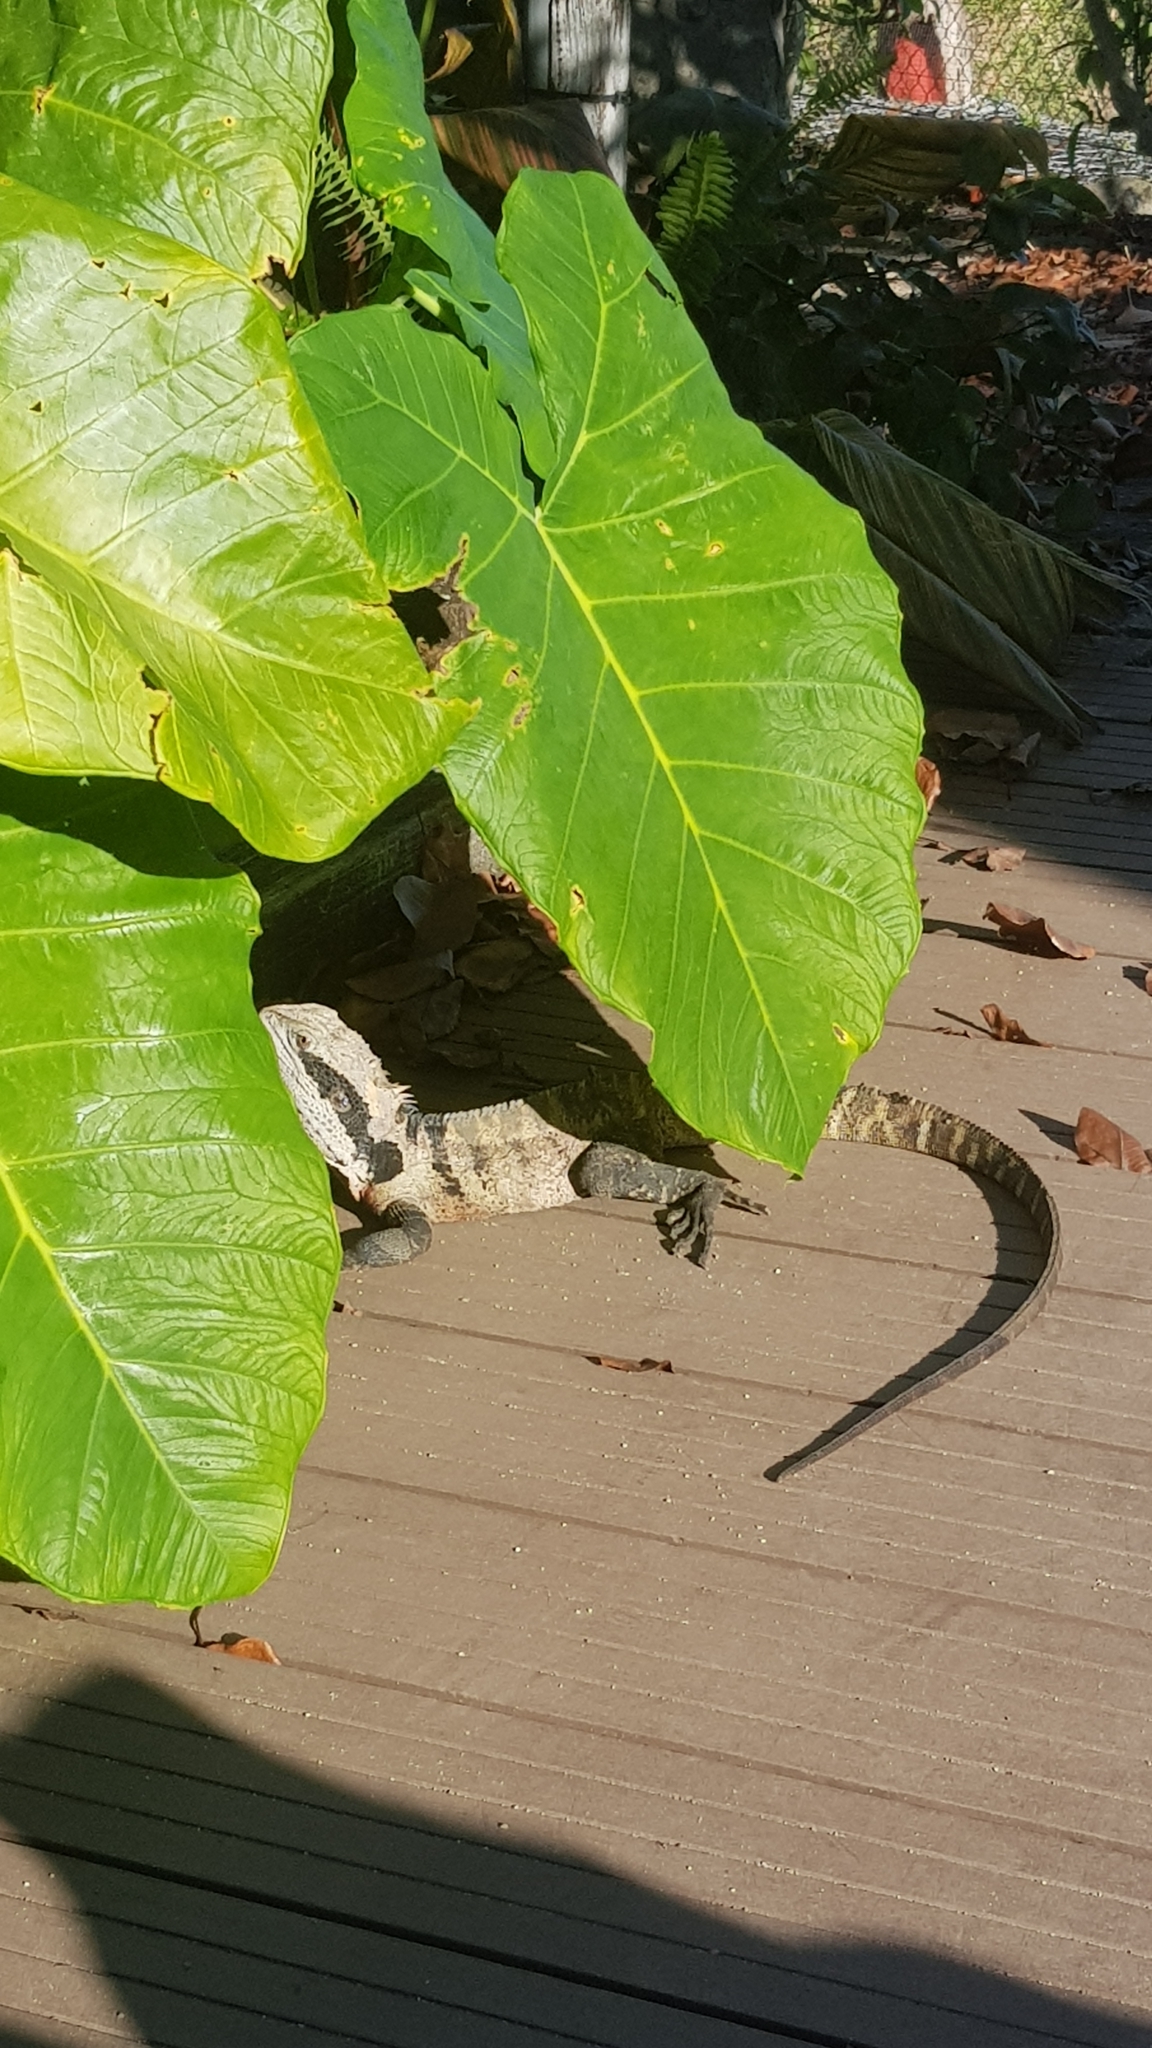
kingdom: Animalia
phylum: Chordata
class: Squamata
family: Agamidae
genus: Intellagama
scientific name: Intellagama lesueurii
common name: Eastern water dragon
